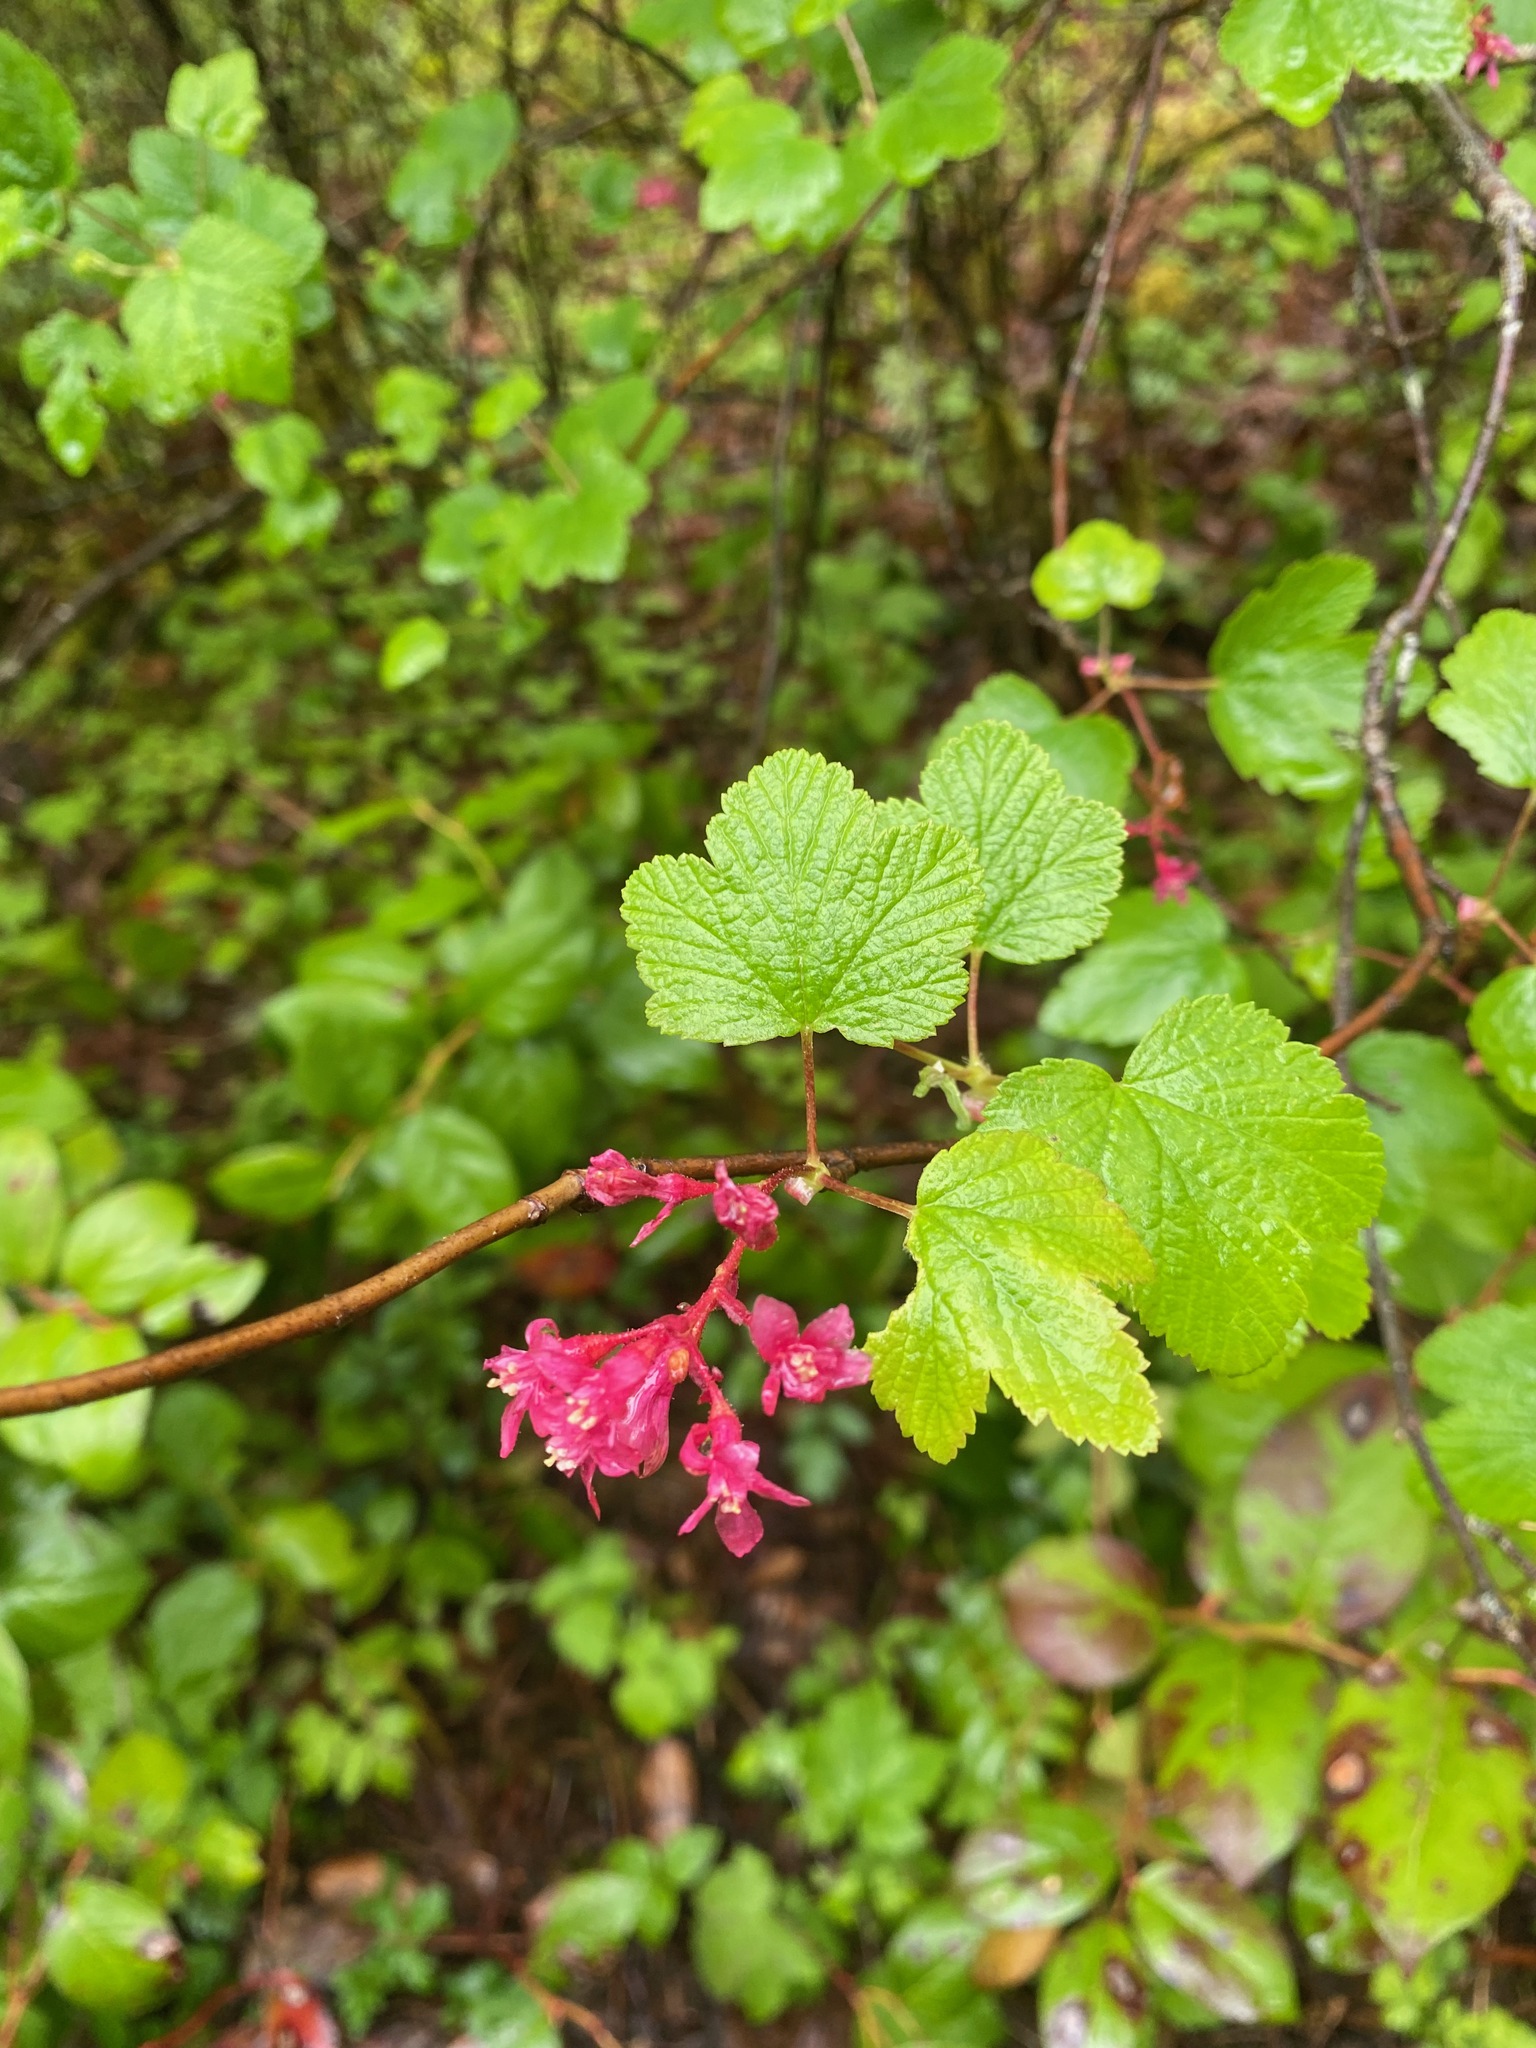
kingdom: Plantae
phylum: Tracheophyta
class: Magnoliopsida
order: Saxifragales
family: Grossulariaceae
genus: Ribes
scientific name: Ribes sanguineum
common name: Flowering currant
